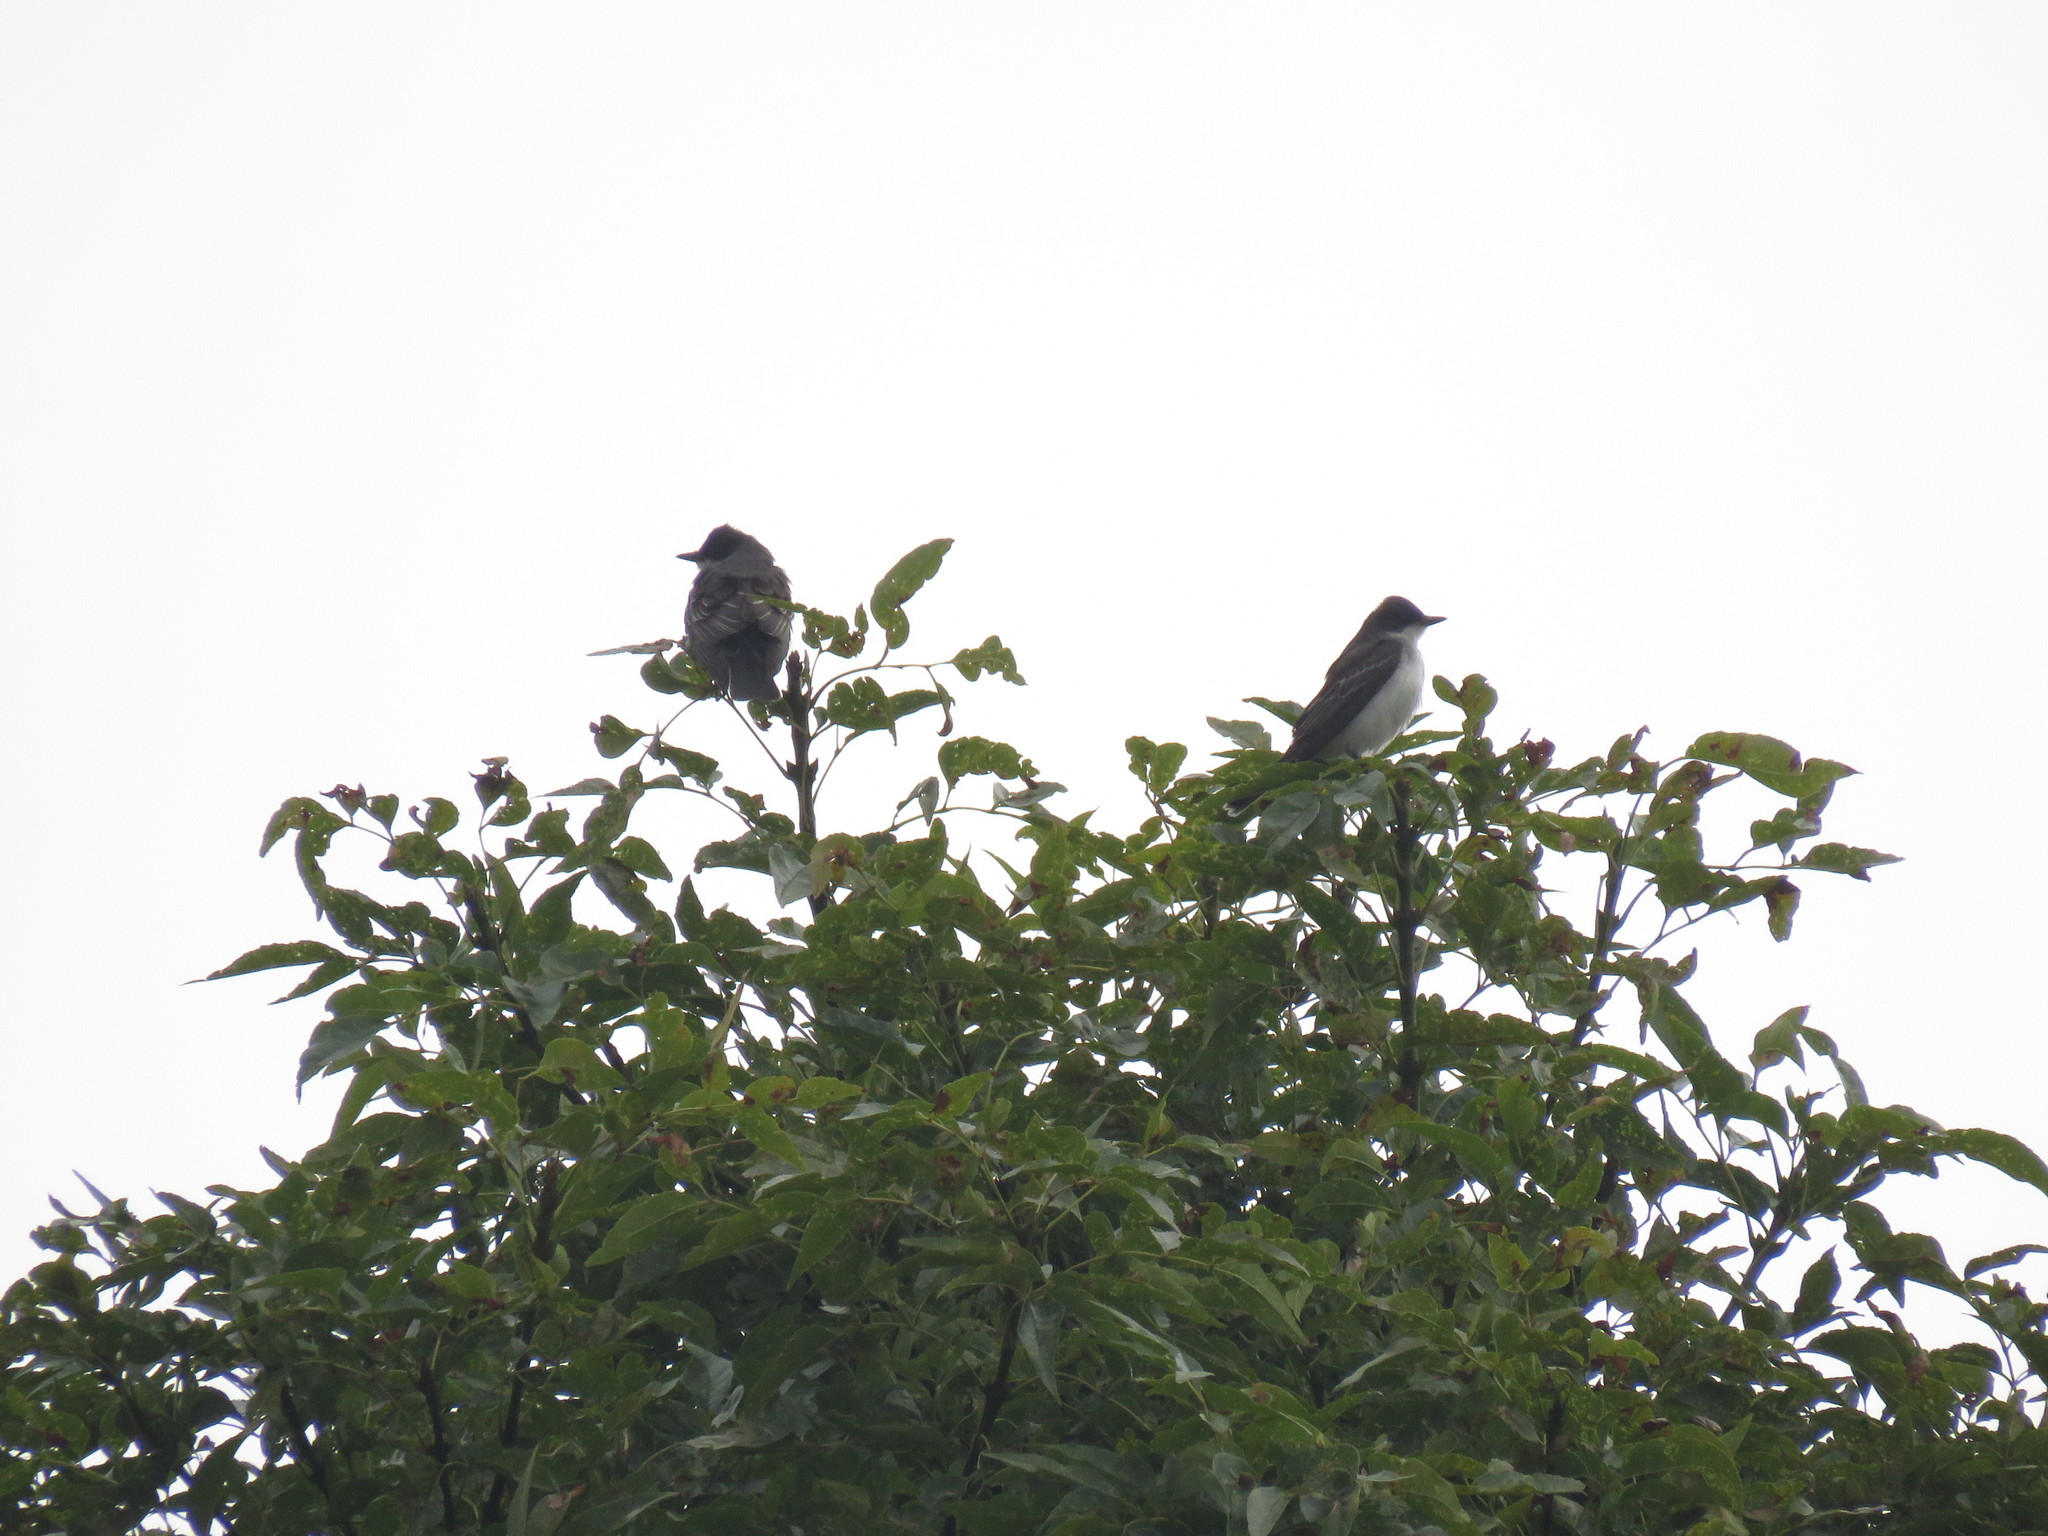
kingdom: Animalia
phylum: Chordata
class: Aves
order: Passeriformes
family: Tyrannidae
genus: Tyrannus
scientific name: Tyrannus tyrannus
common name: Eastern kingbird
